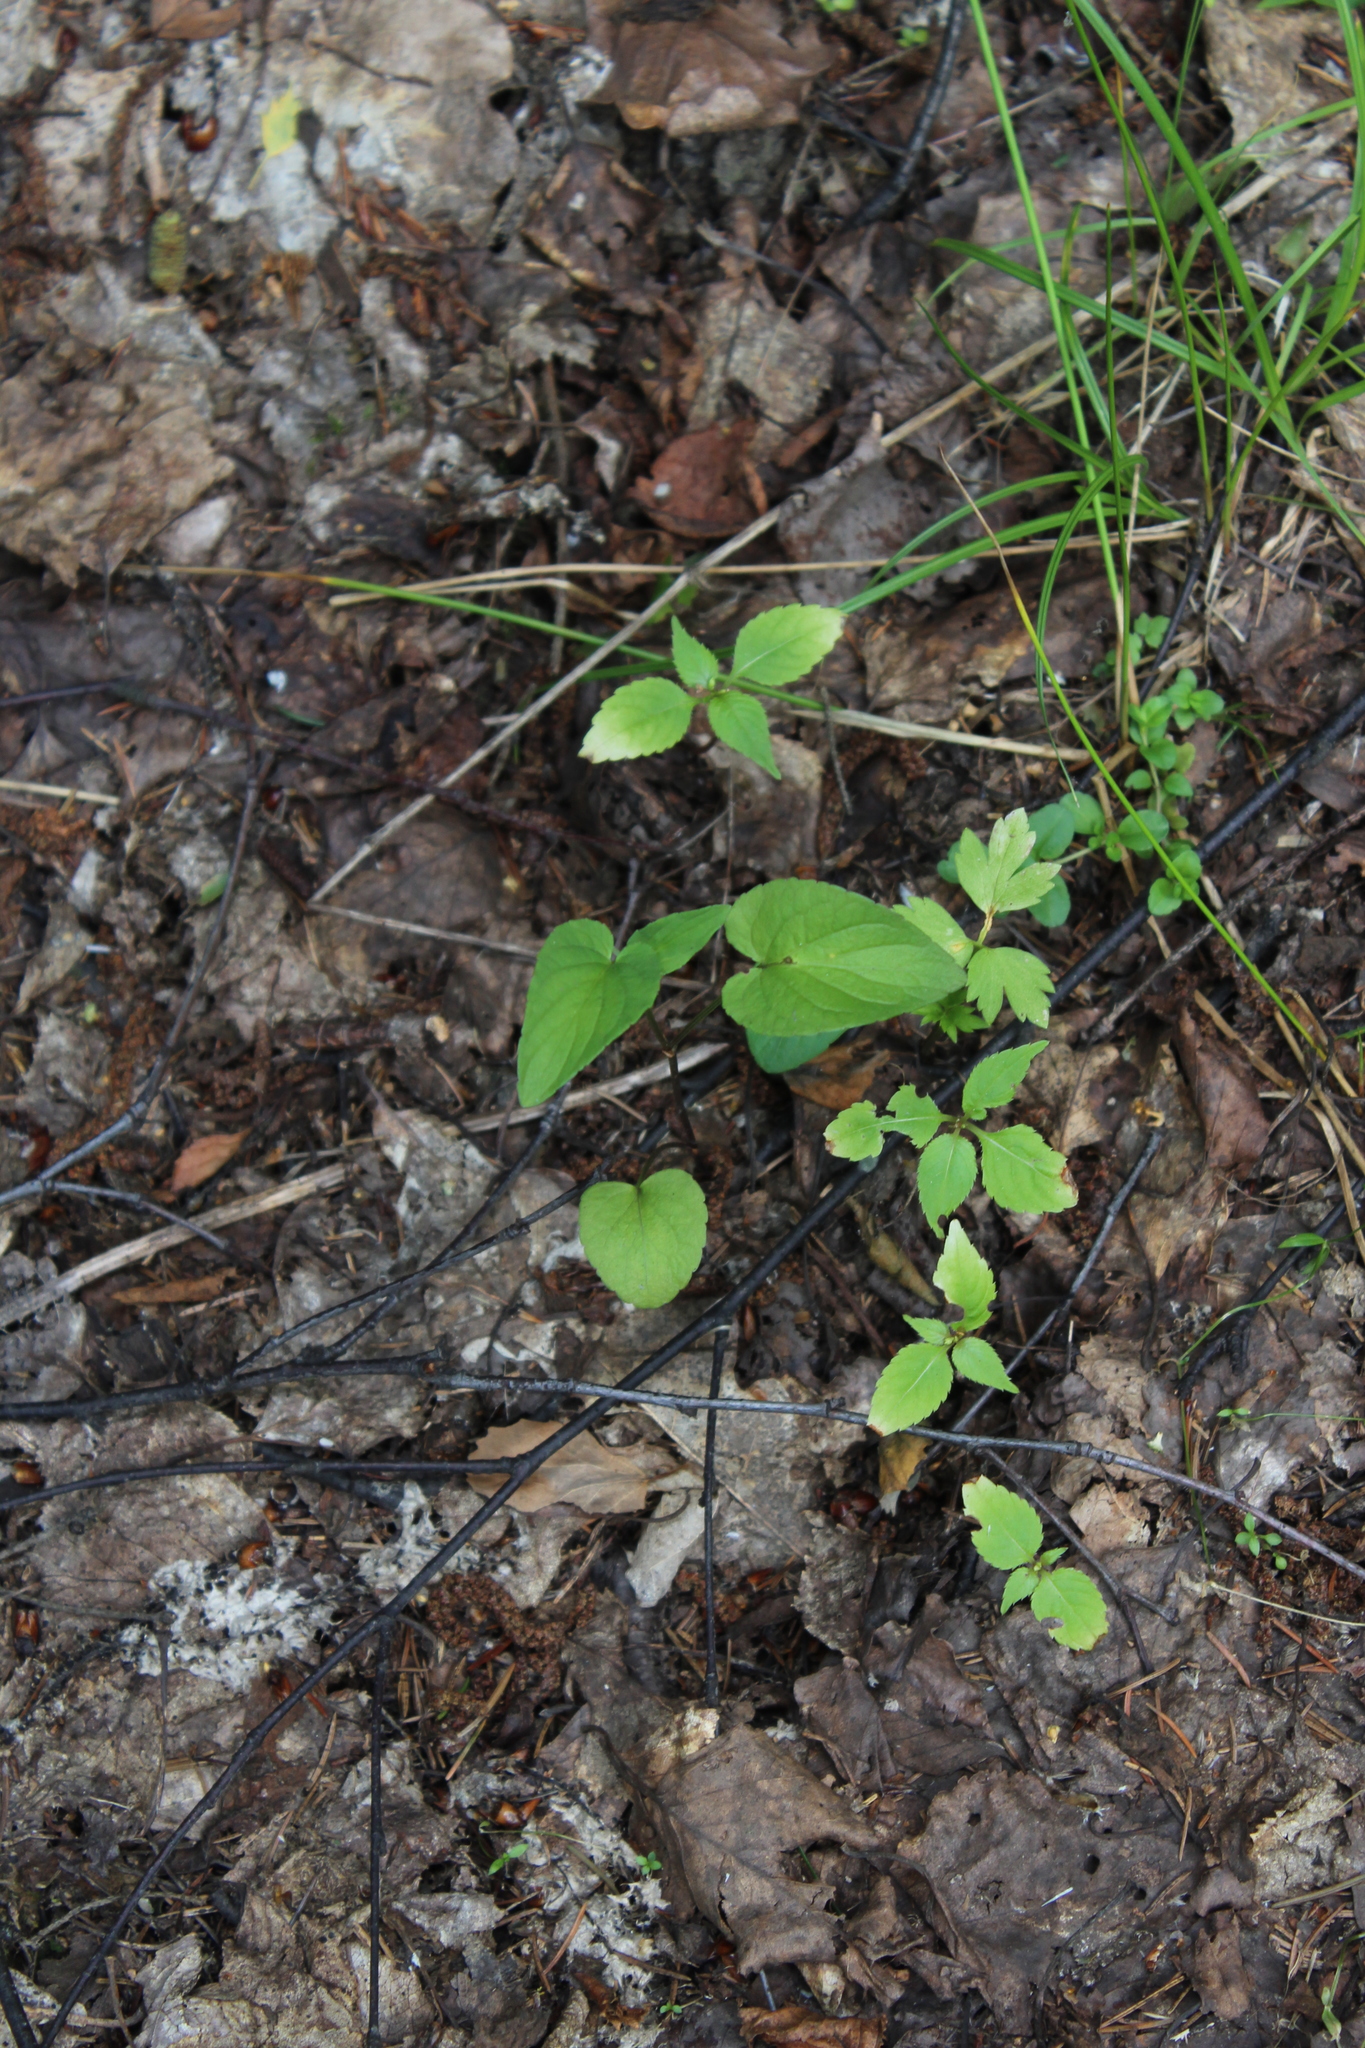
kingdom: Plantae
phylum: Tracheophyta
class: Magnoliopsida
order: Malpighiales
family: Violaceae
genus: Viola
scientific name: Viola
